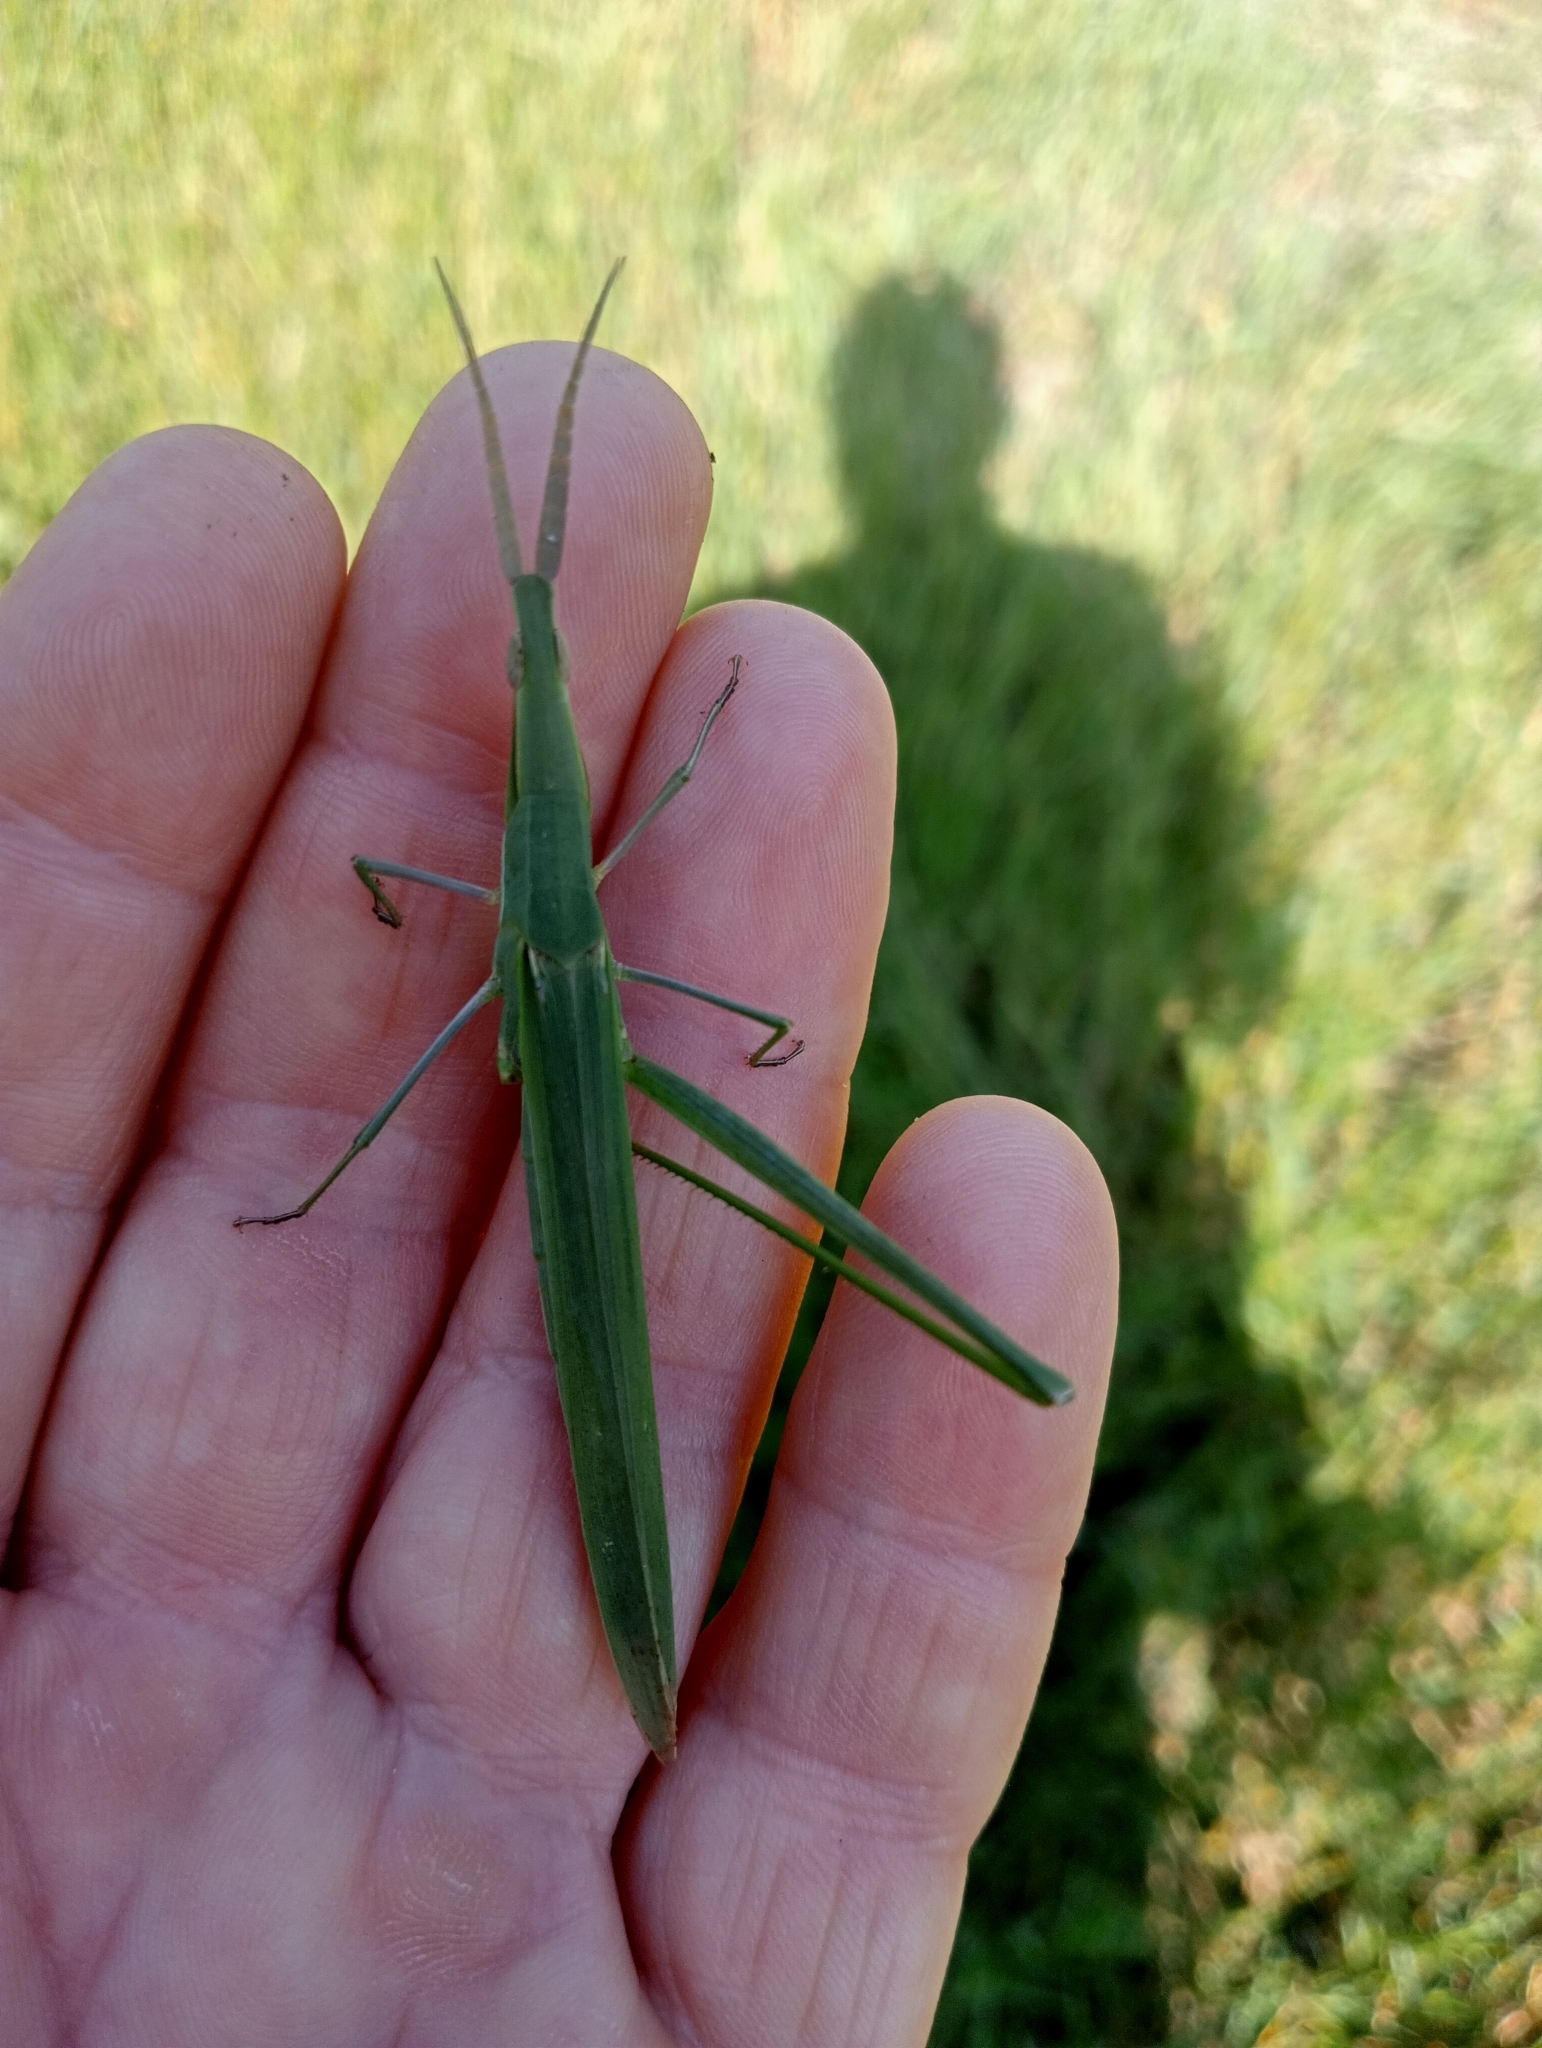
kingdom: Animalia
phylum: Arthropoda
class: Insecta
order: Orthoptera
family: Acrididae
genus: Acrida
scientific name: Acrida ungarica
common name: Common cone-headed grasshopper
